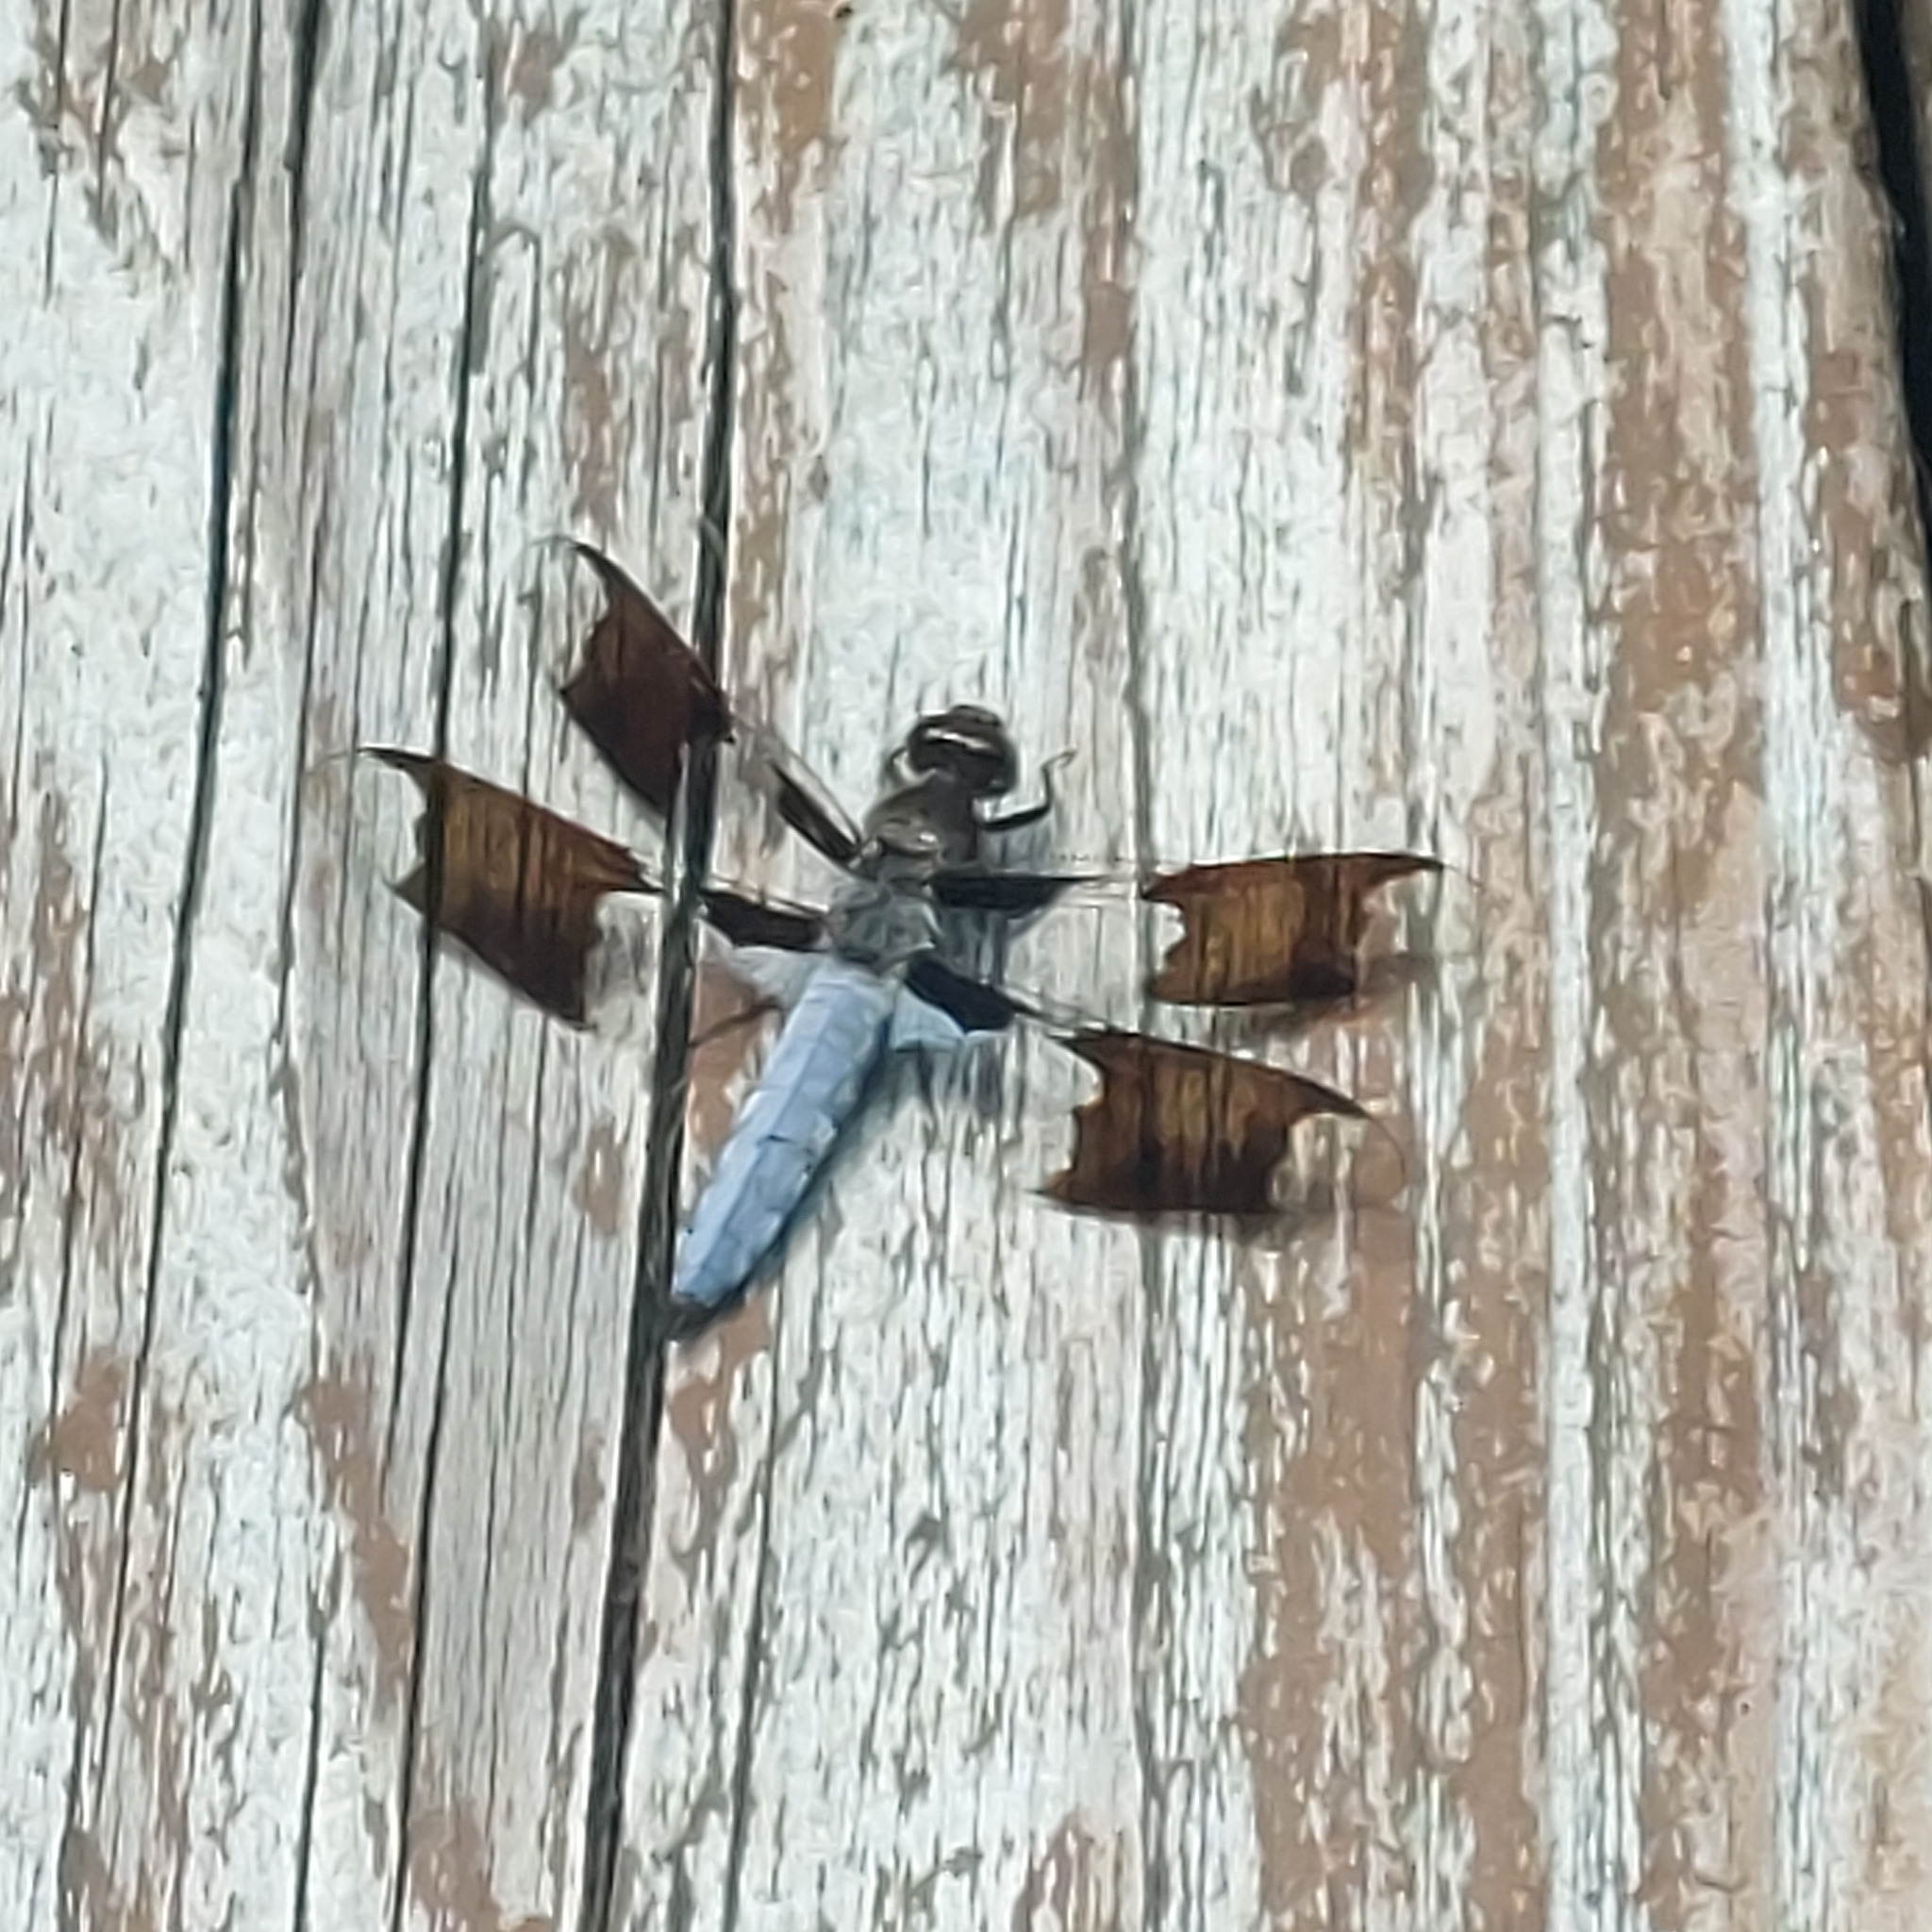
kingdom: Animalia
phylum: Arthropoda
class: Insecta
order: Odonata
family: Libellulidae
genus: Plathemis
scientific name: Plathemis lydia
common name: Common whitetail
